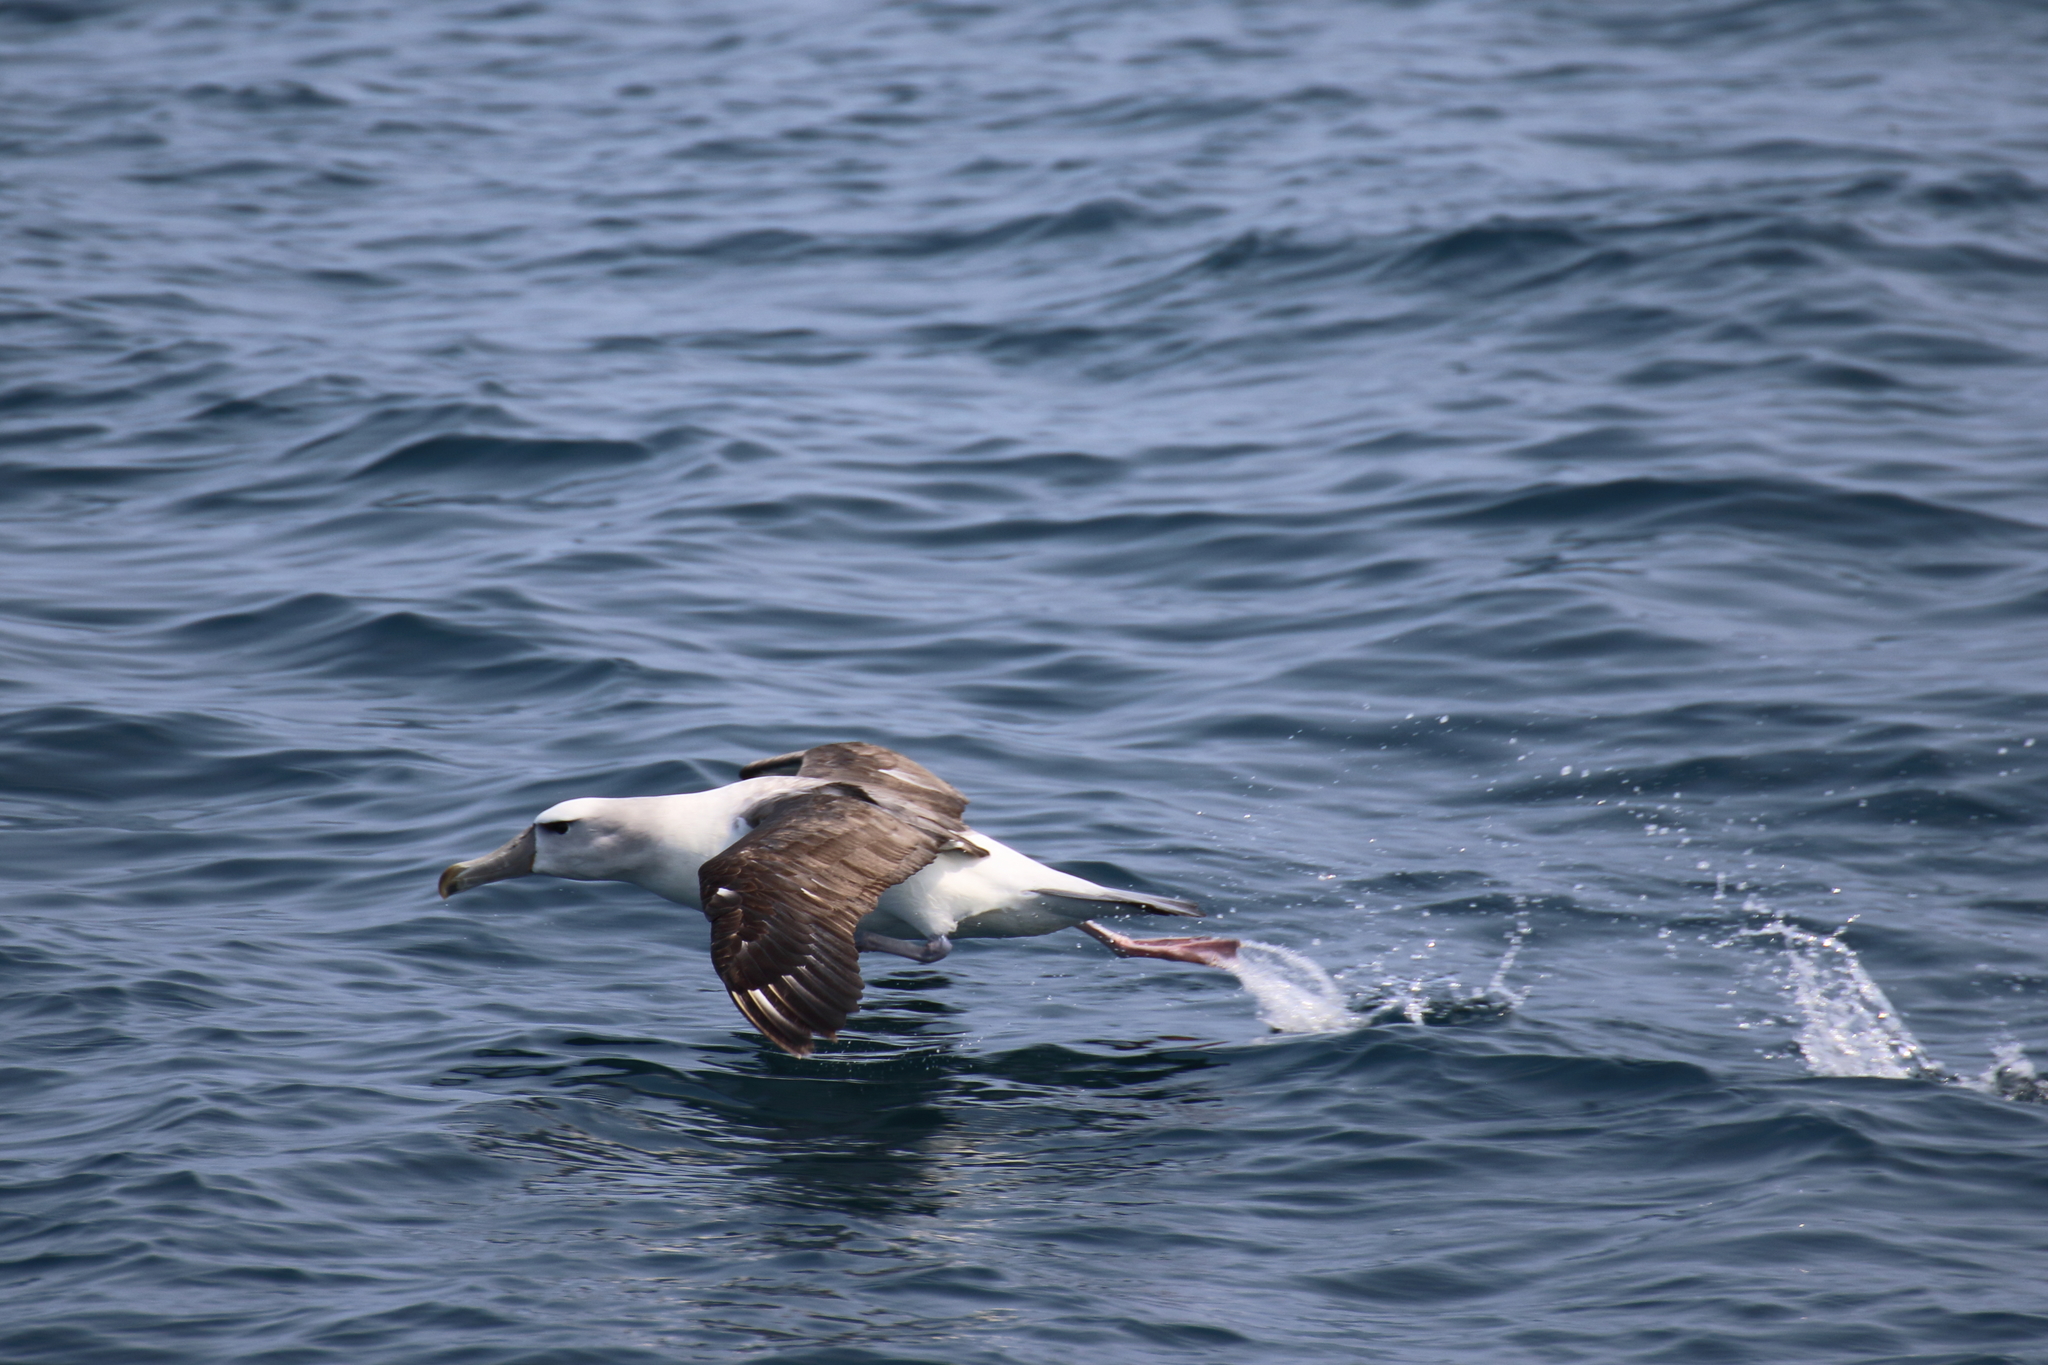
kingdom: Animalia
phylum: Chordata
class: Aves
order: Procellariiformes
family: Diomedeidae
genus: Thalassarche
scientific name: Thalassarche cauta
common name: Shy albatross
